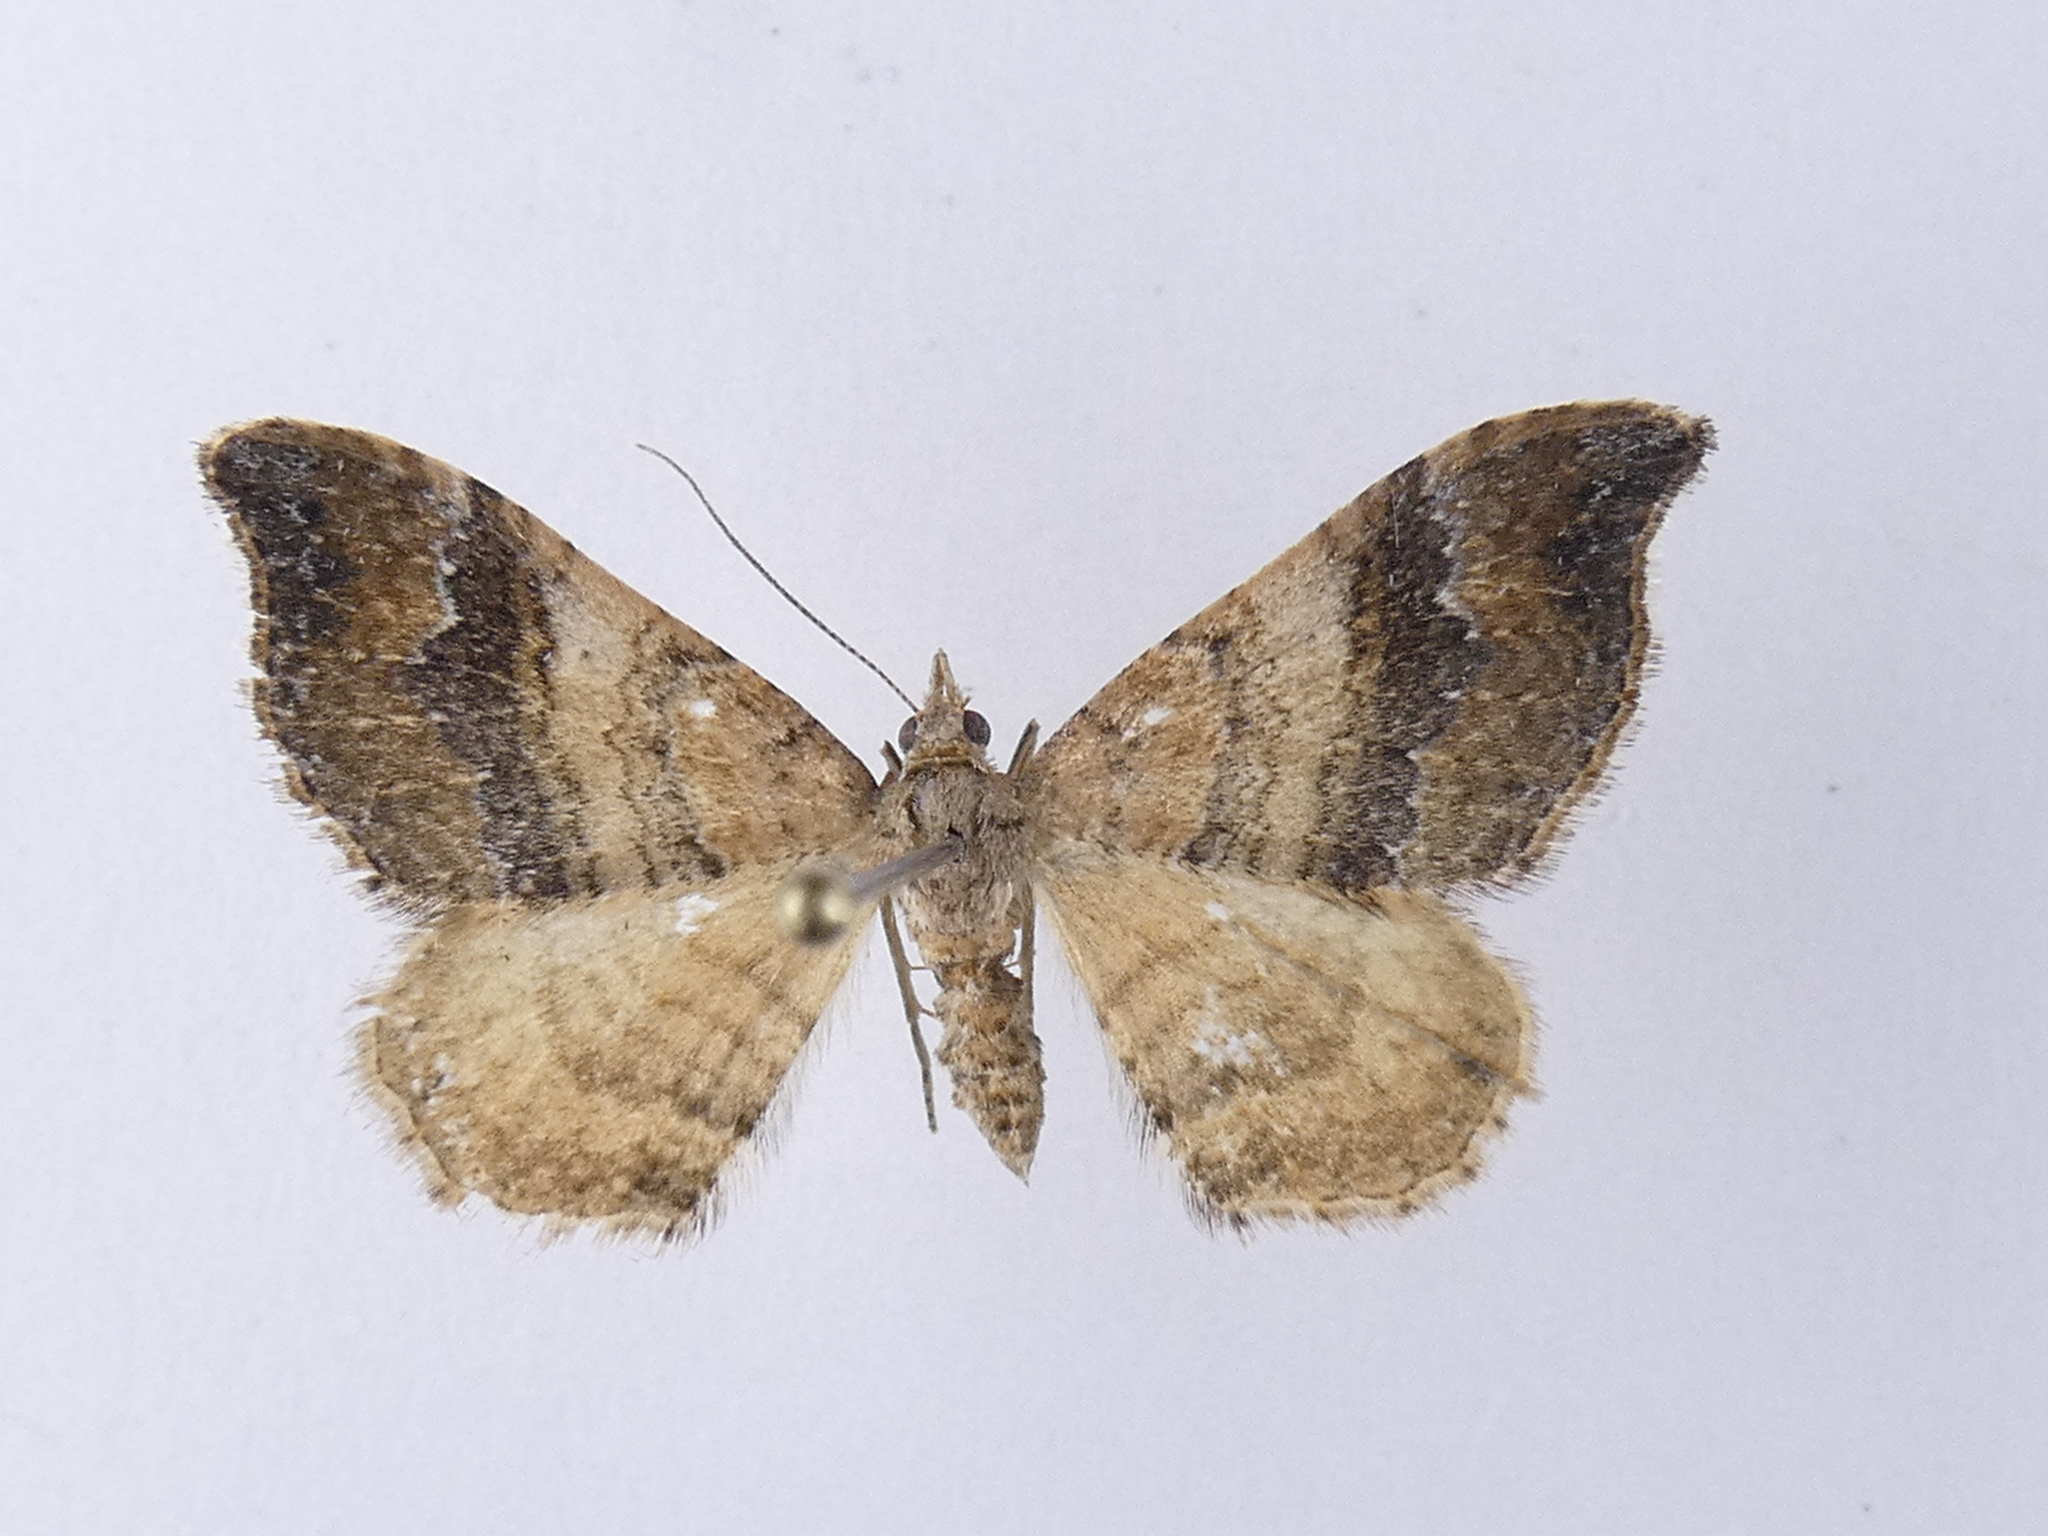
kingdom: Animalia
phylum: Arthropoda
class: Insecta
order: Lepidoptera
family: Geometridae
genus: Homodotis
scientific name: Homodotis megaspilata
